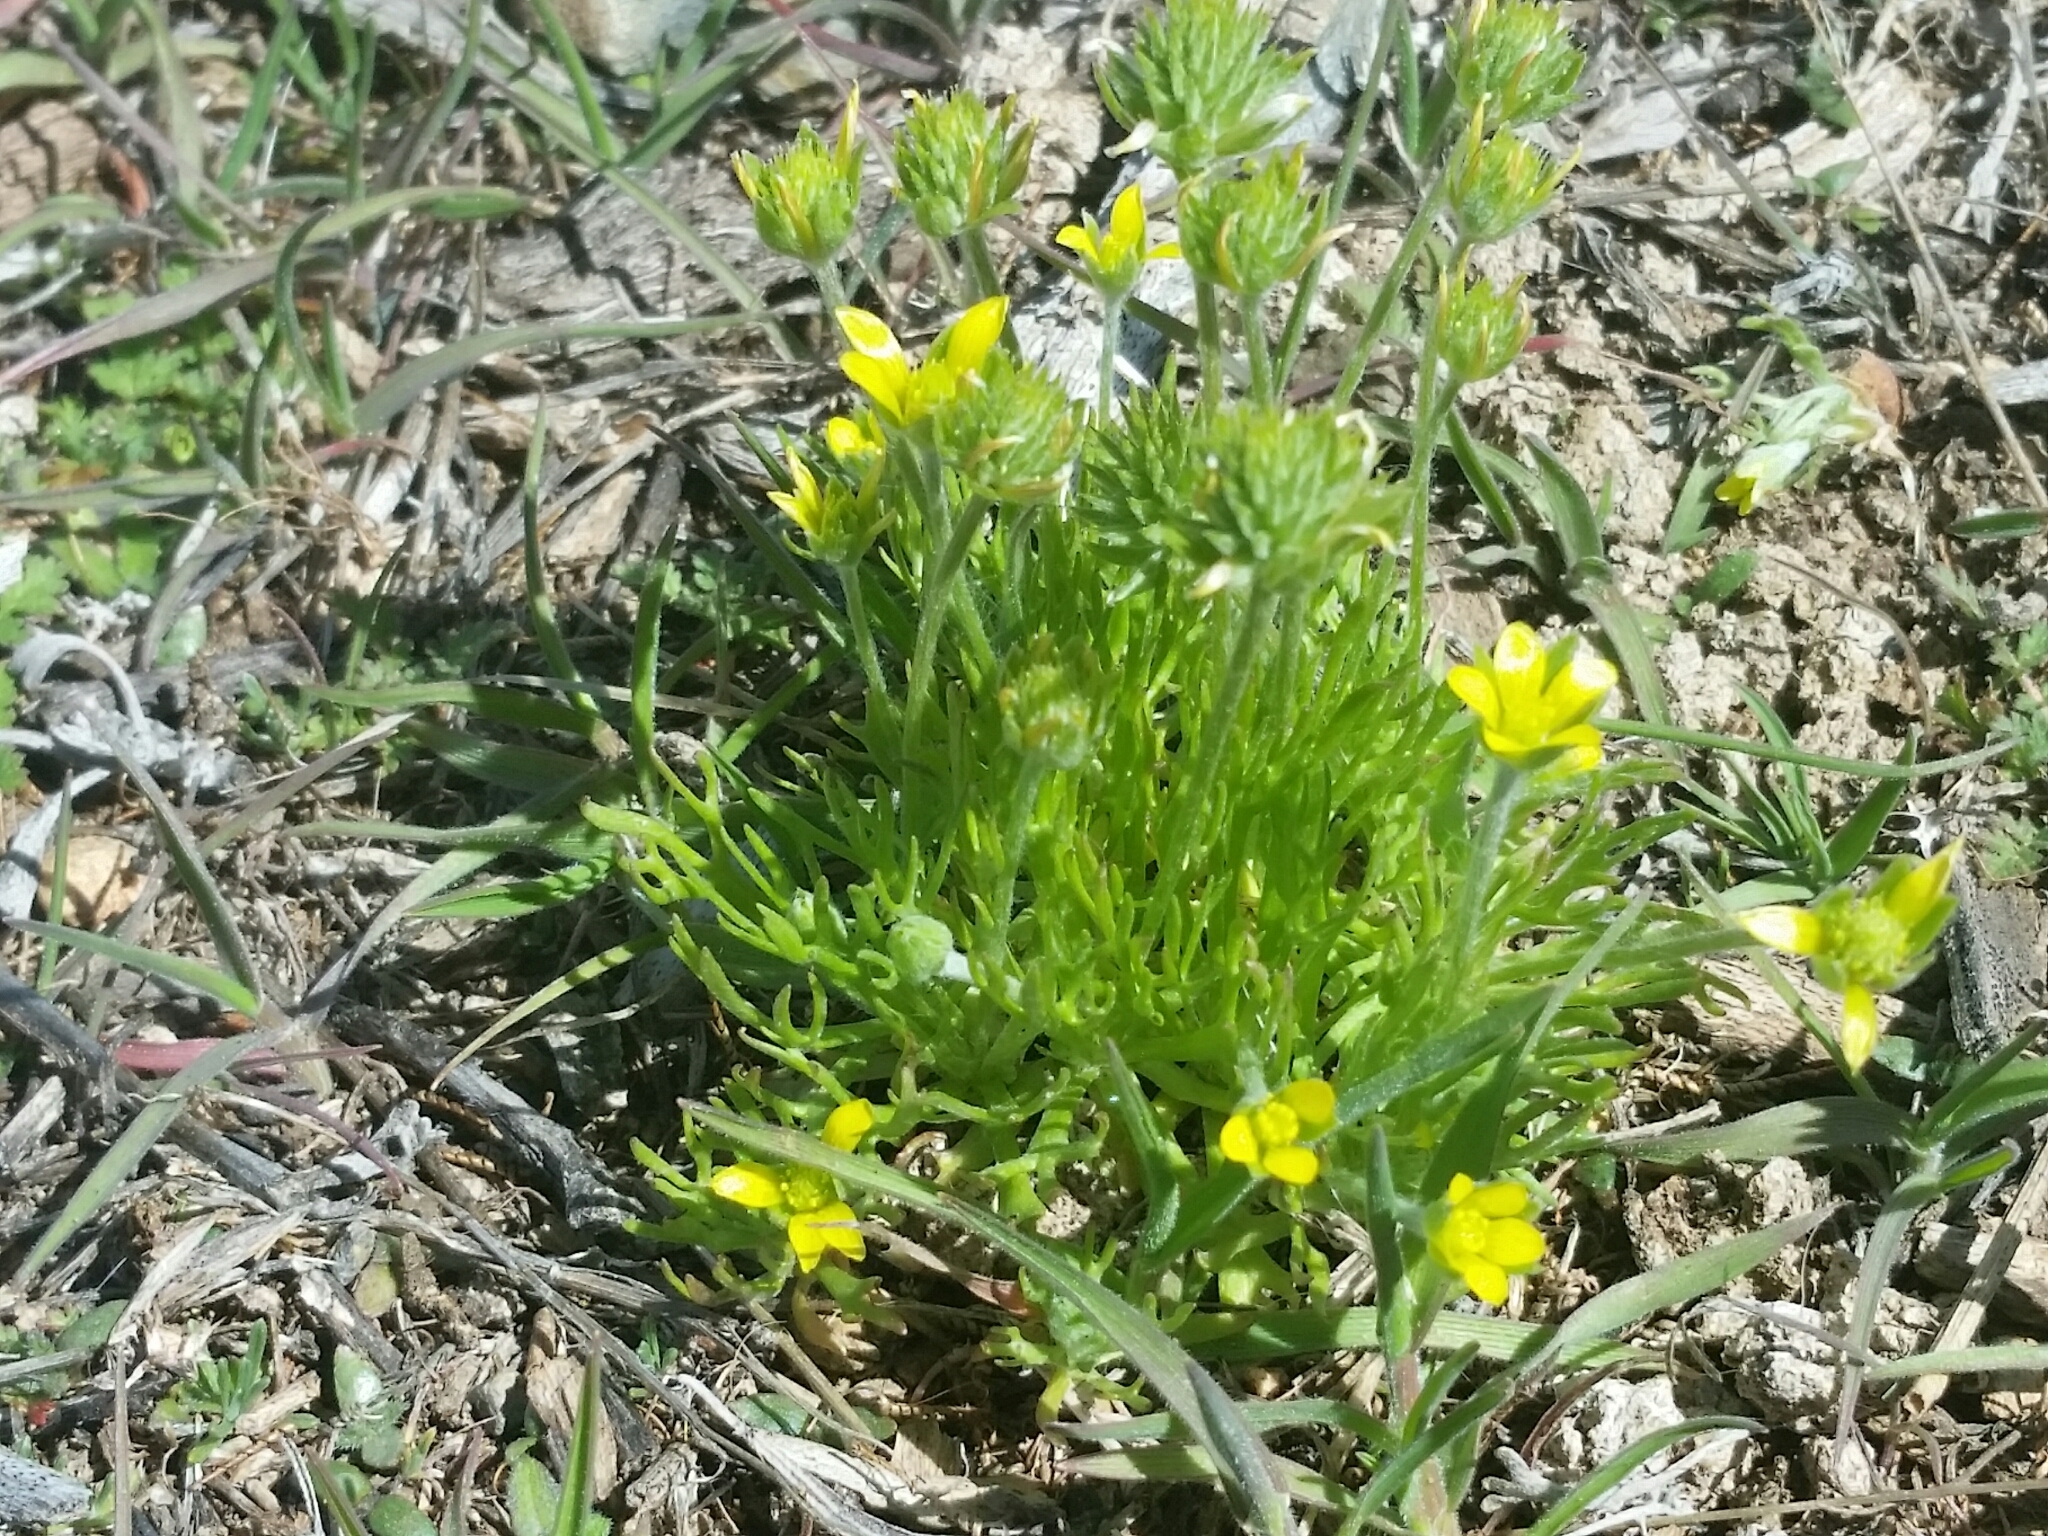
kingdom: Plantae
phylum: Tracheophyta
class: Magnoliopsida
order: Ranunculales
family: Ranunculaceae
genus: Ceratocephala
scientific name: Ceratocephala orthoceras
